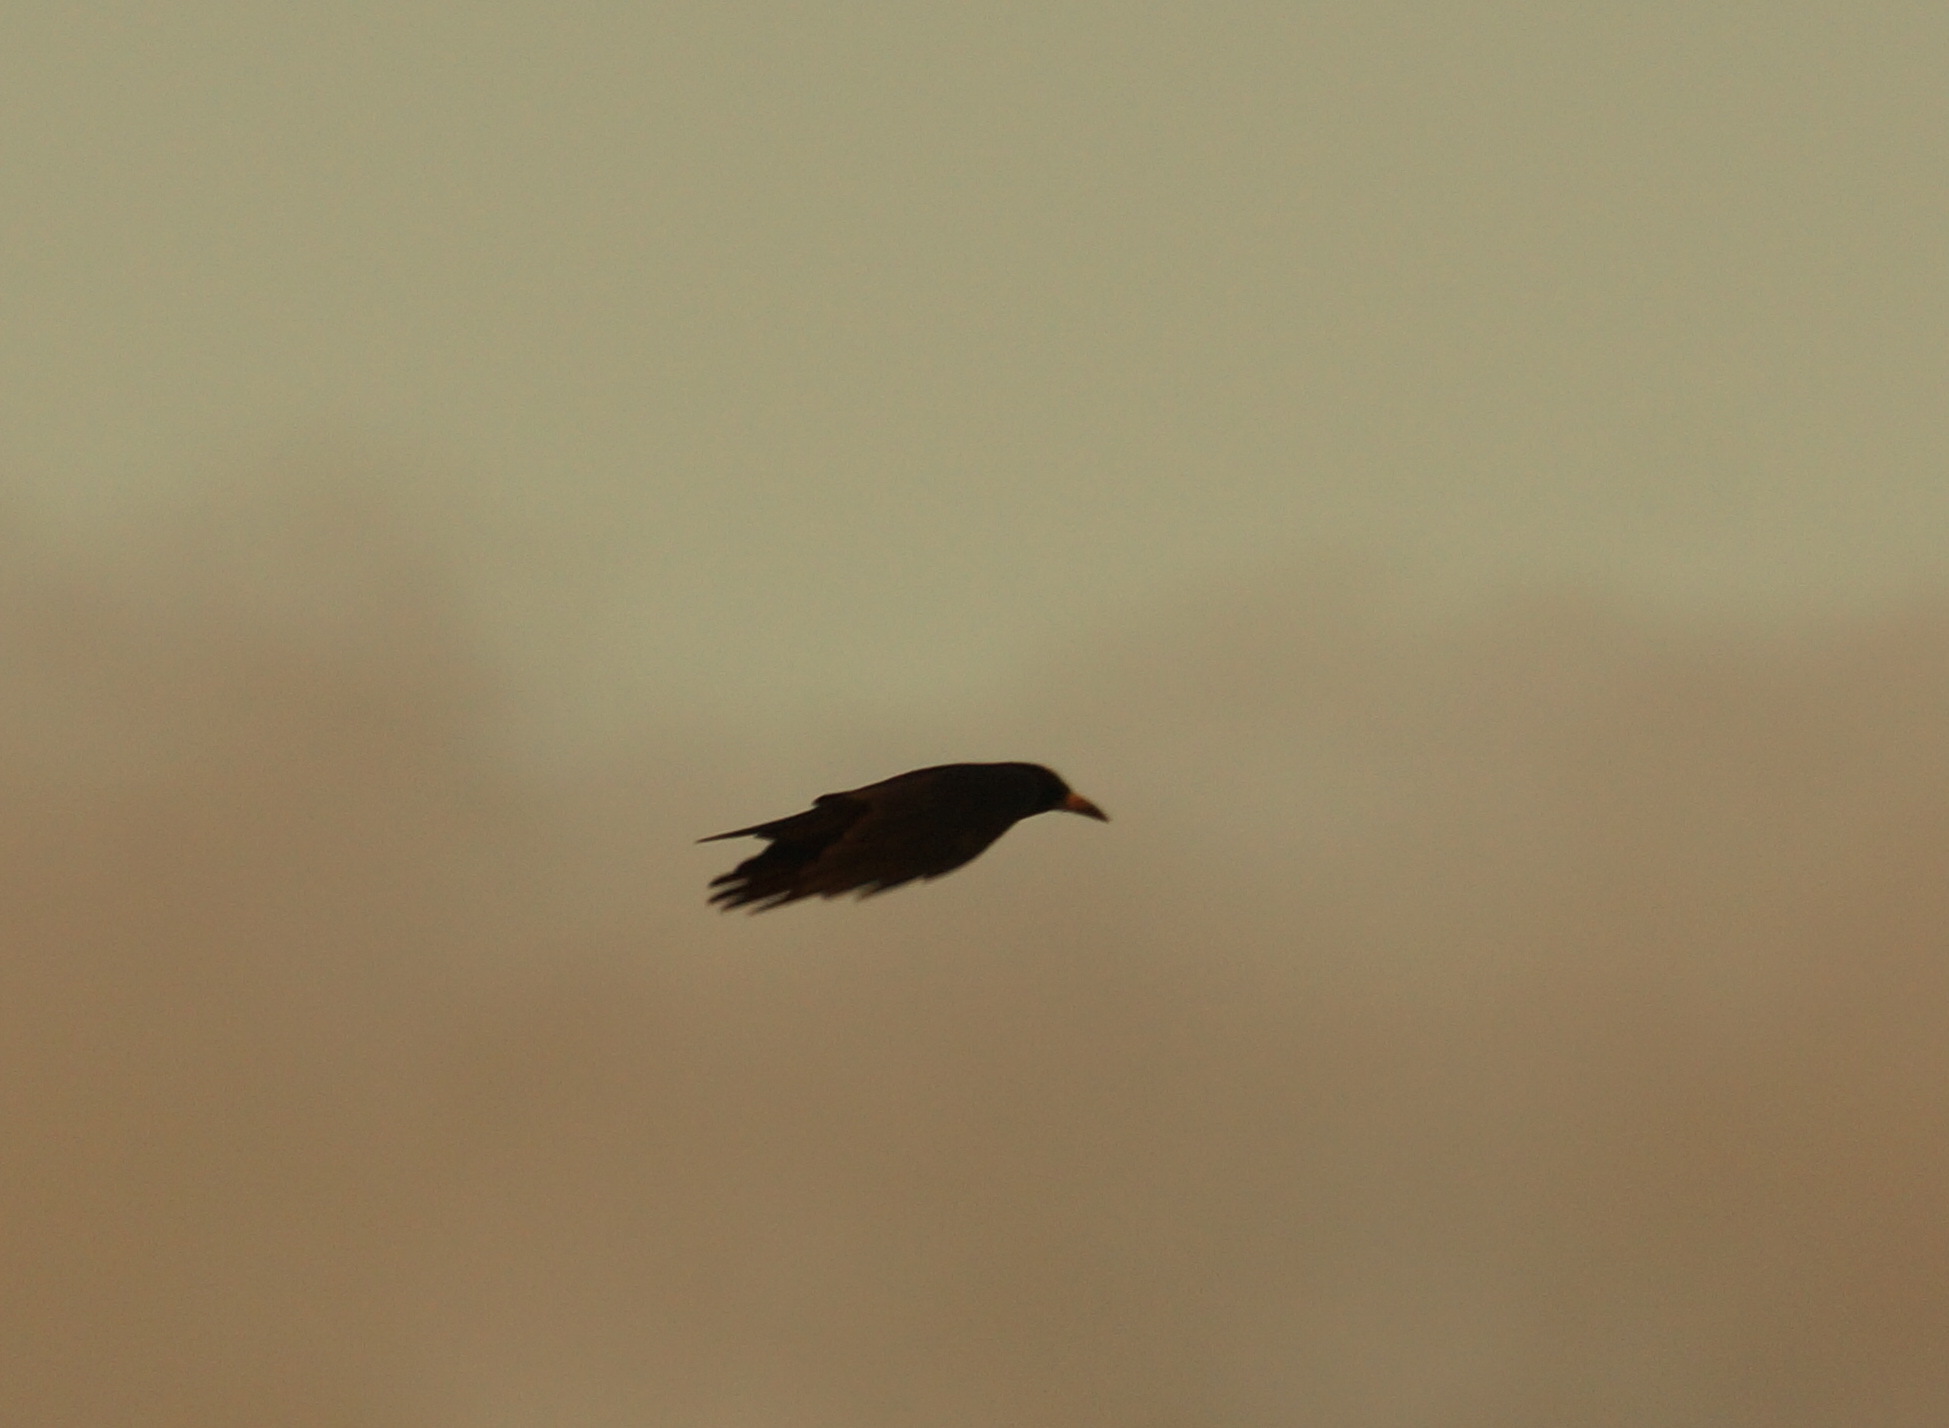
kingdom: Animalia
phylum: Chordata
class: Aves
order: Passeriformes
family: Corvidae
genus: Corvus
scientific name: Corvus frugilegus
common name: Rook
